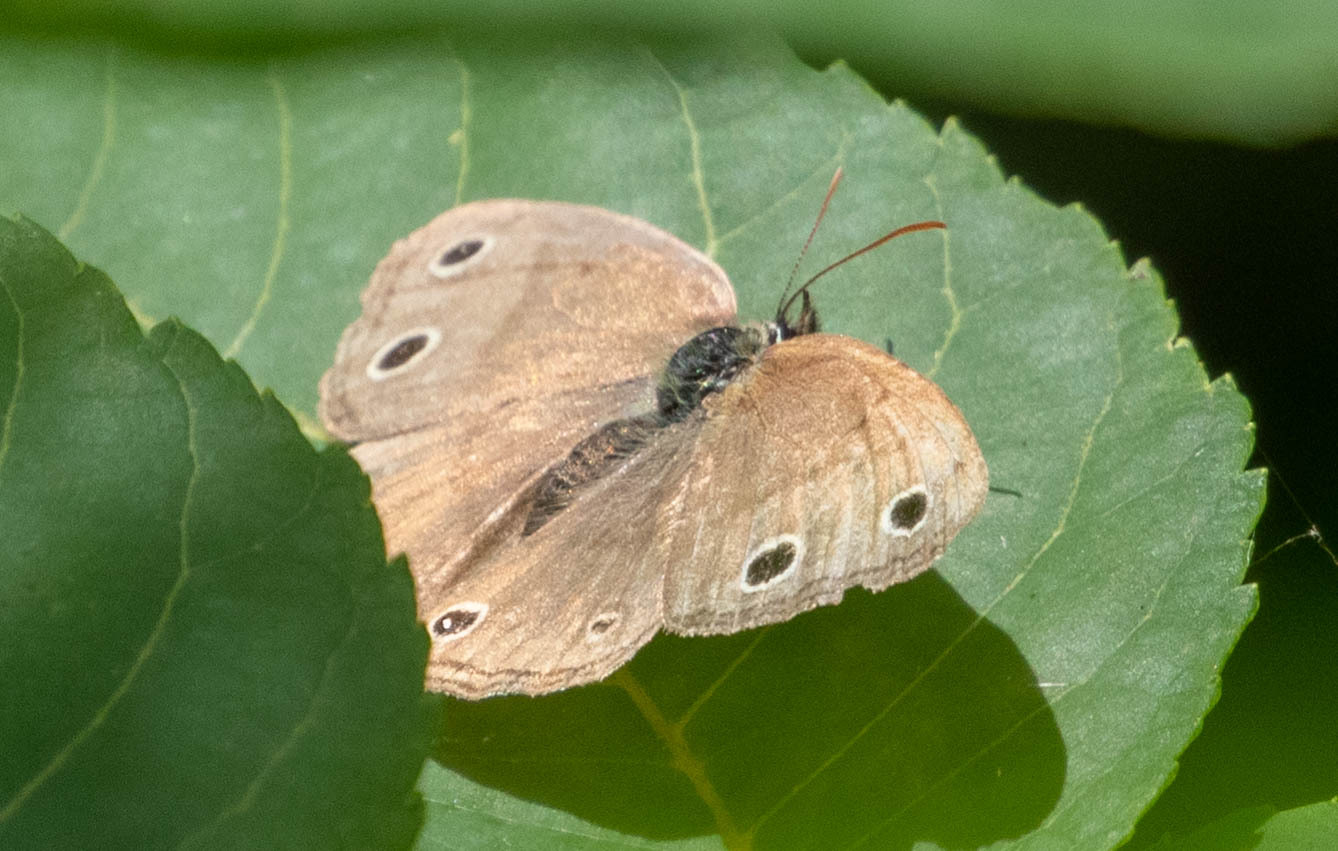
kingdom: Animalia
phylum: Arthropoda
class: Insecta
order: Lepidoptera
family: Nymphalidae
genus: Euptychia
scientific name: Euptychia cymela
